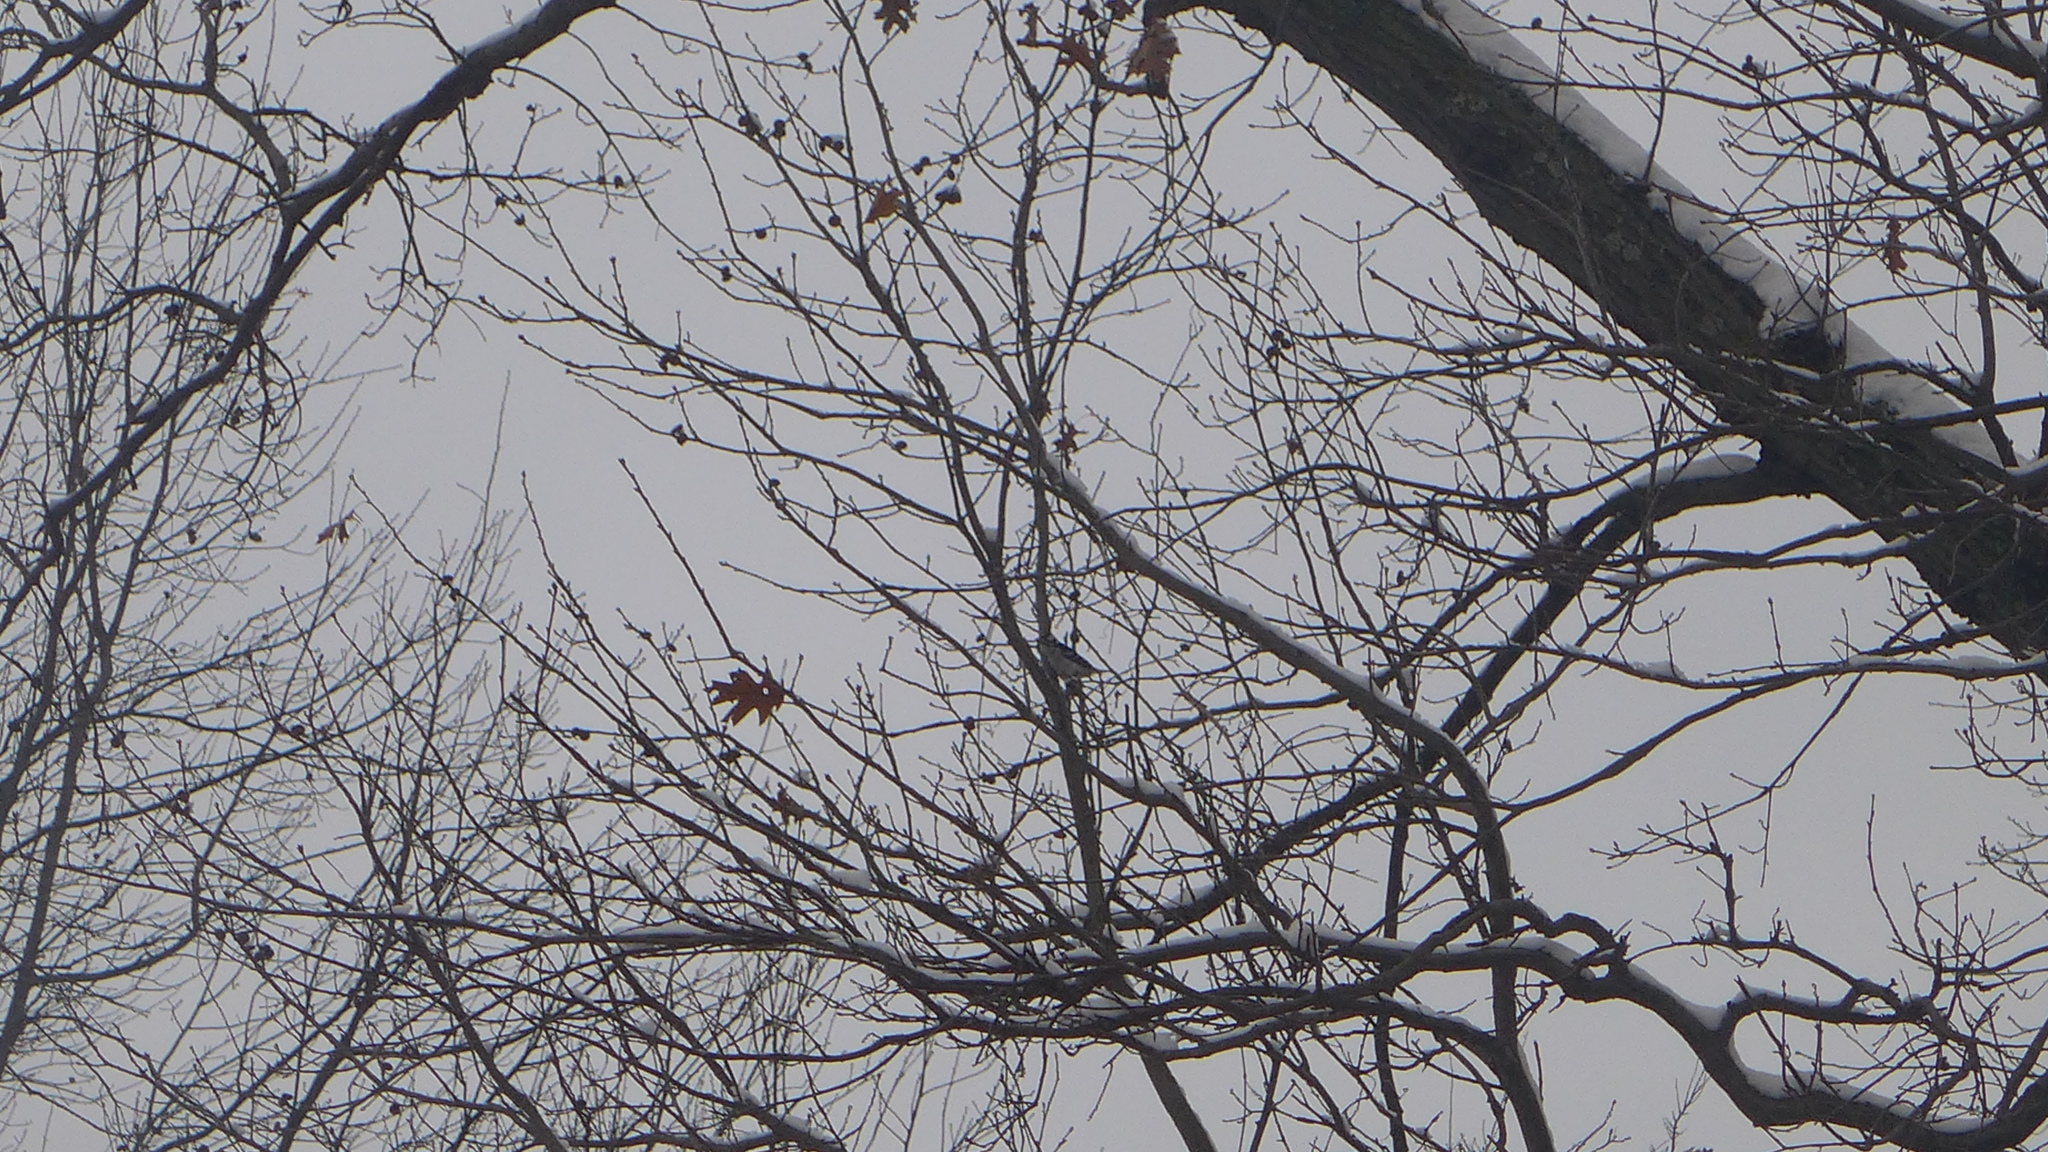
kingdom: Animalia
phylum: Chordata
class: Aves
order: Piciformes
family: Picidae
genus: Dryobates
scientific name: Dryobates pubescens
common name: Downy woodpecker
